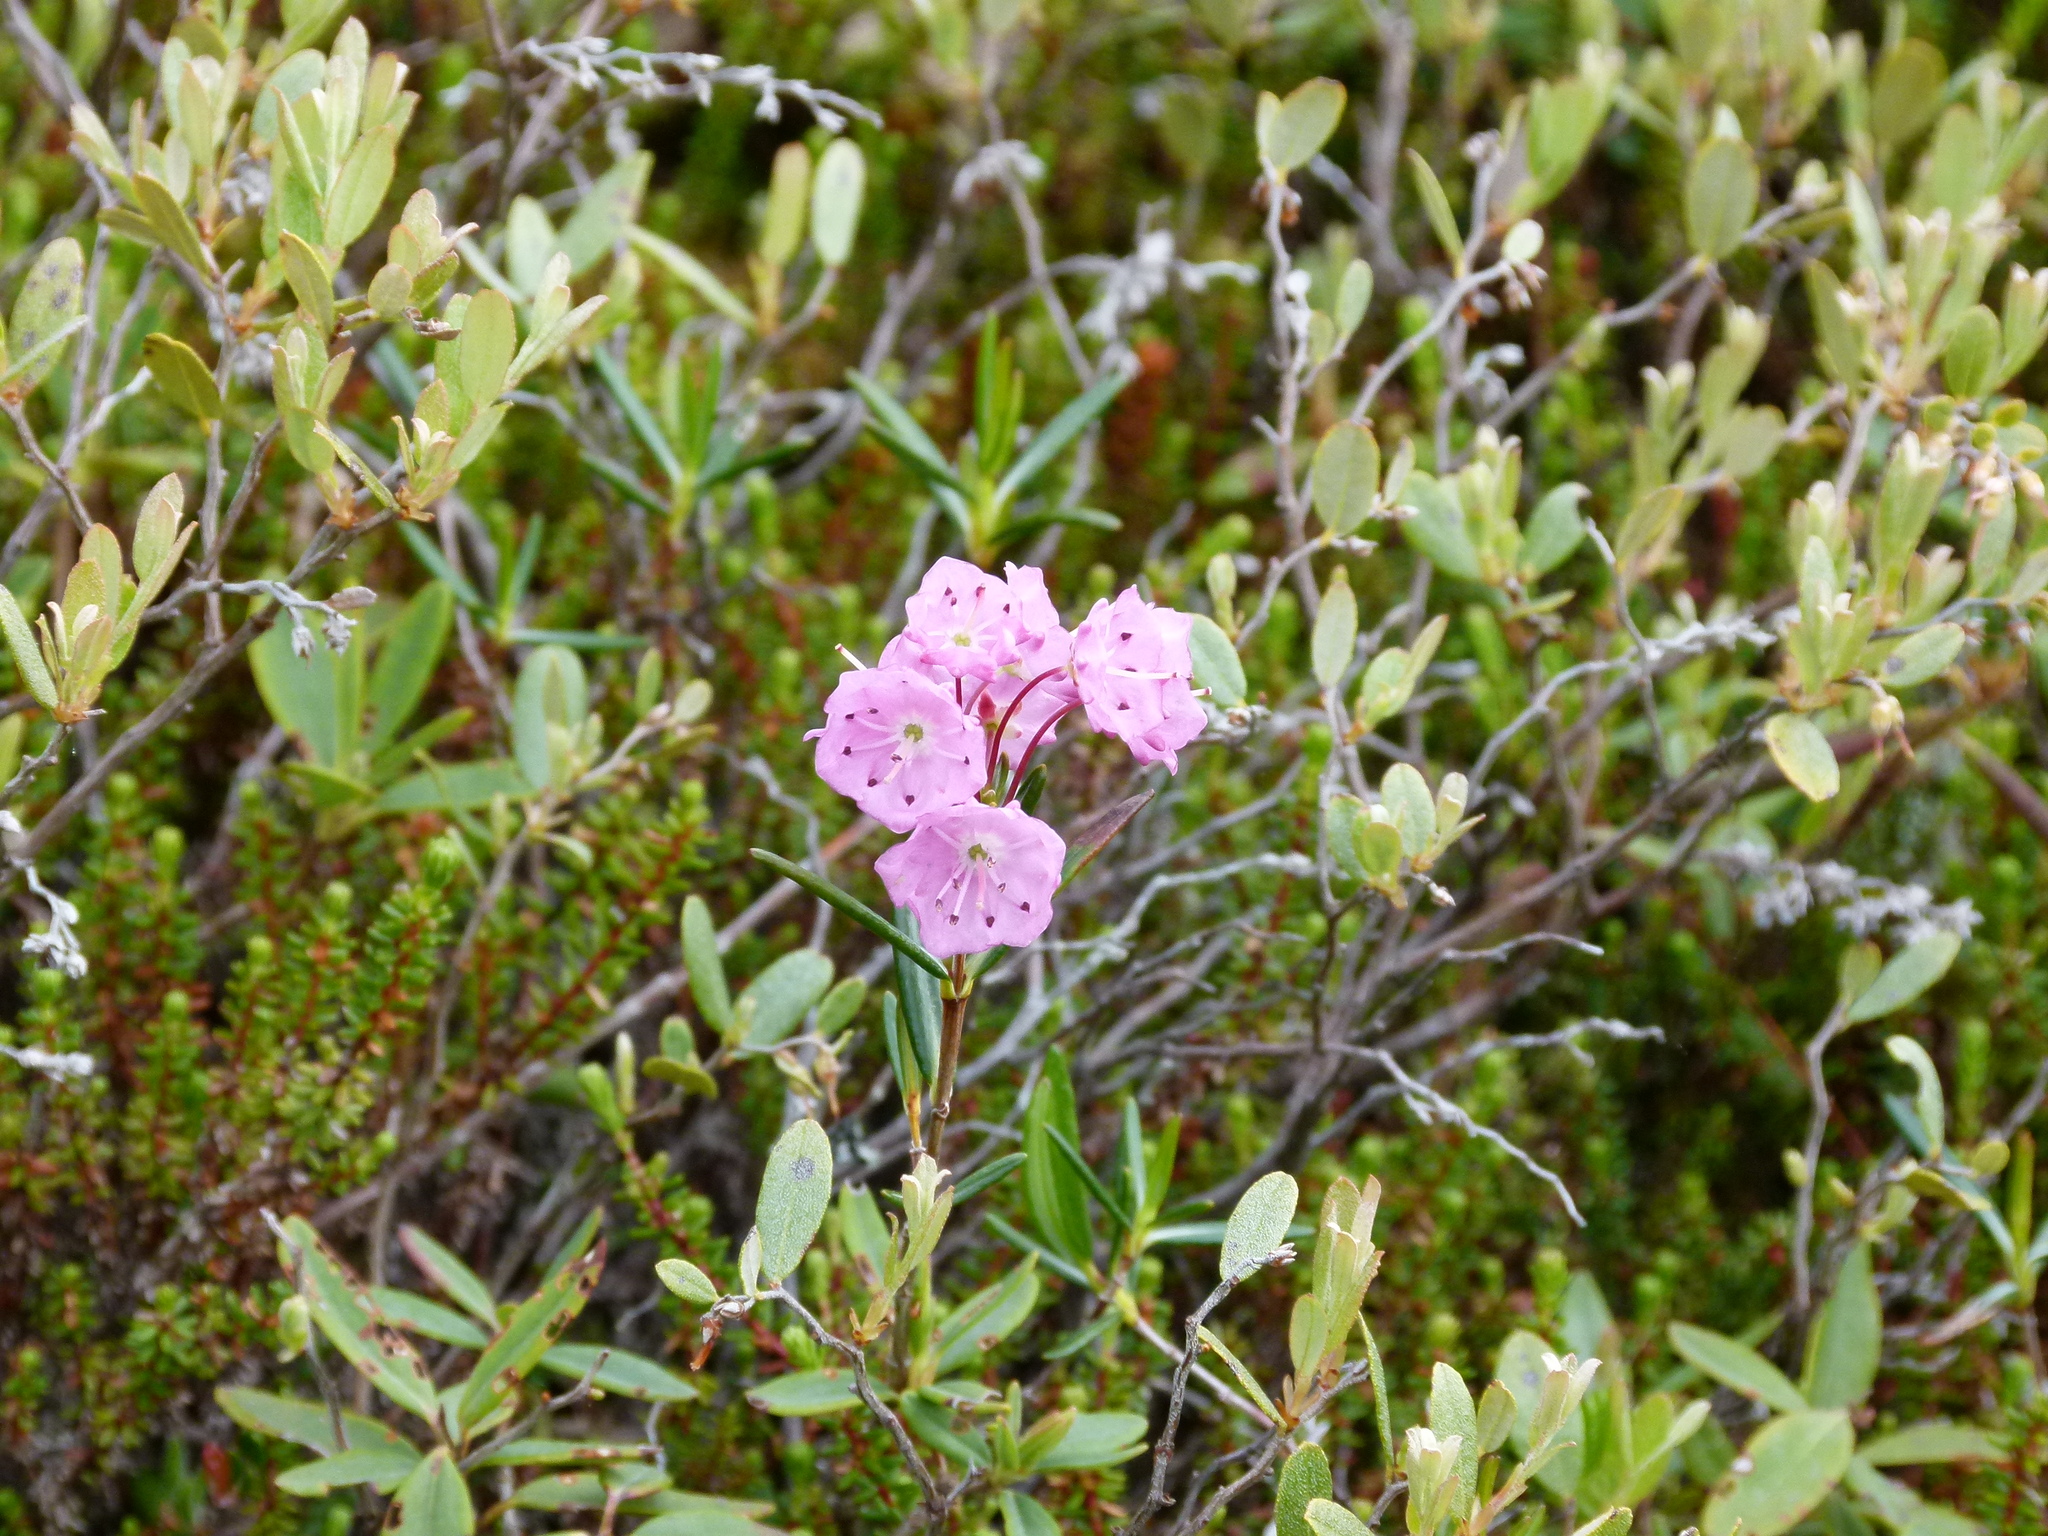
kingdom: Plantae
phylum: Tracheophyta
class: Magnoliopsida
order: Ericales
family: Ericaceae
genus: Kalmia
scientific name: Kalmia polifolia
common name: Bog-laurel
